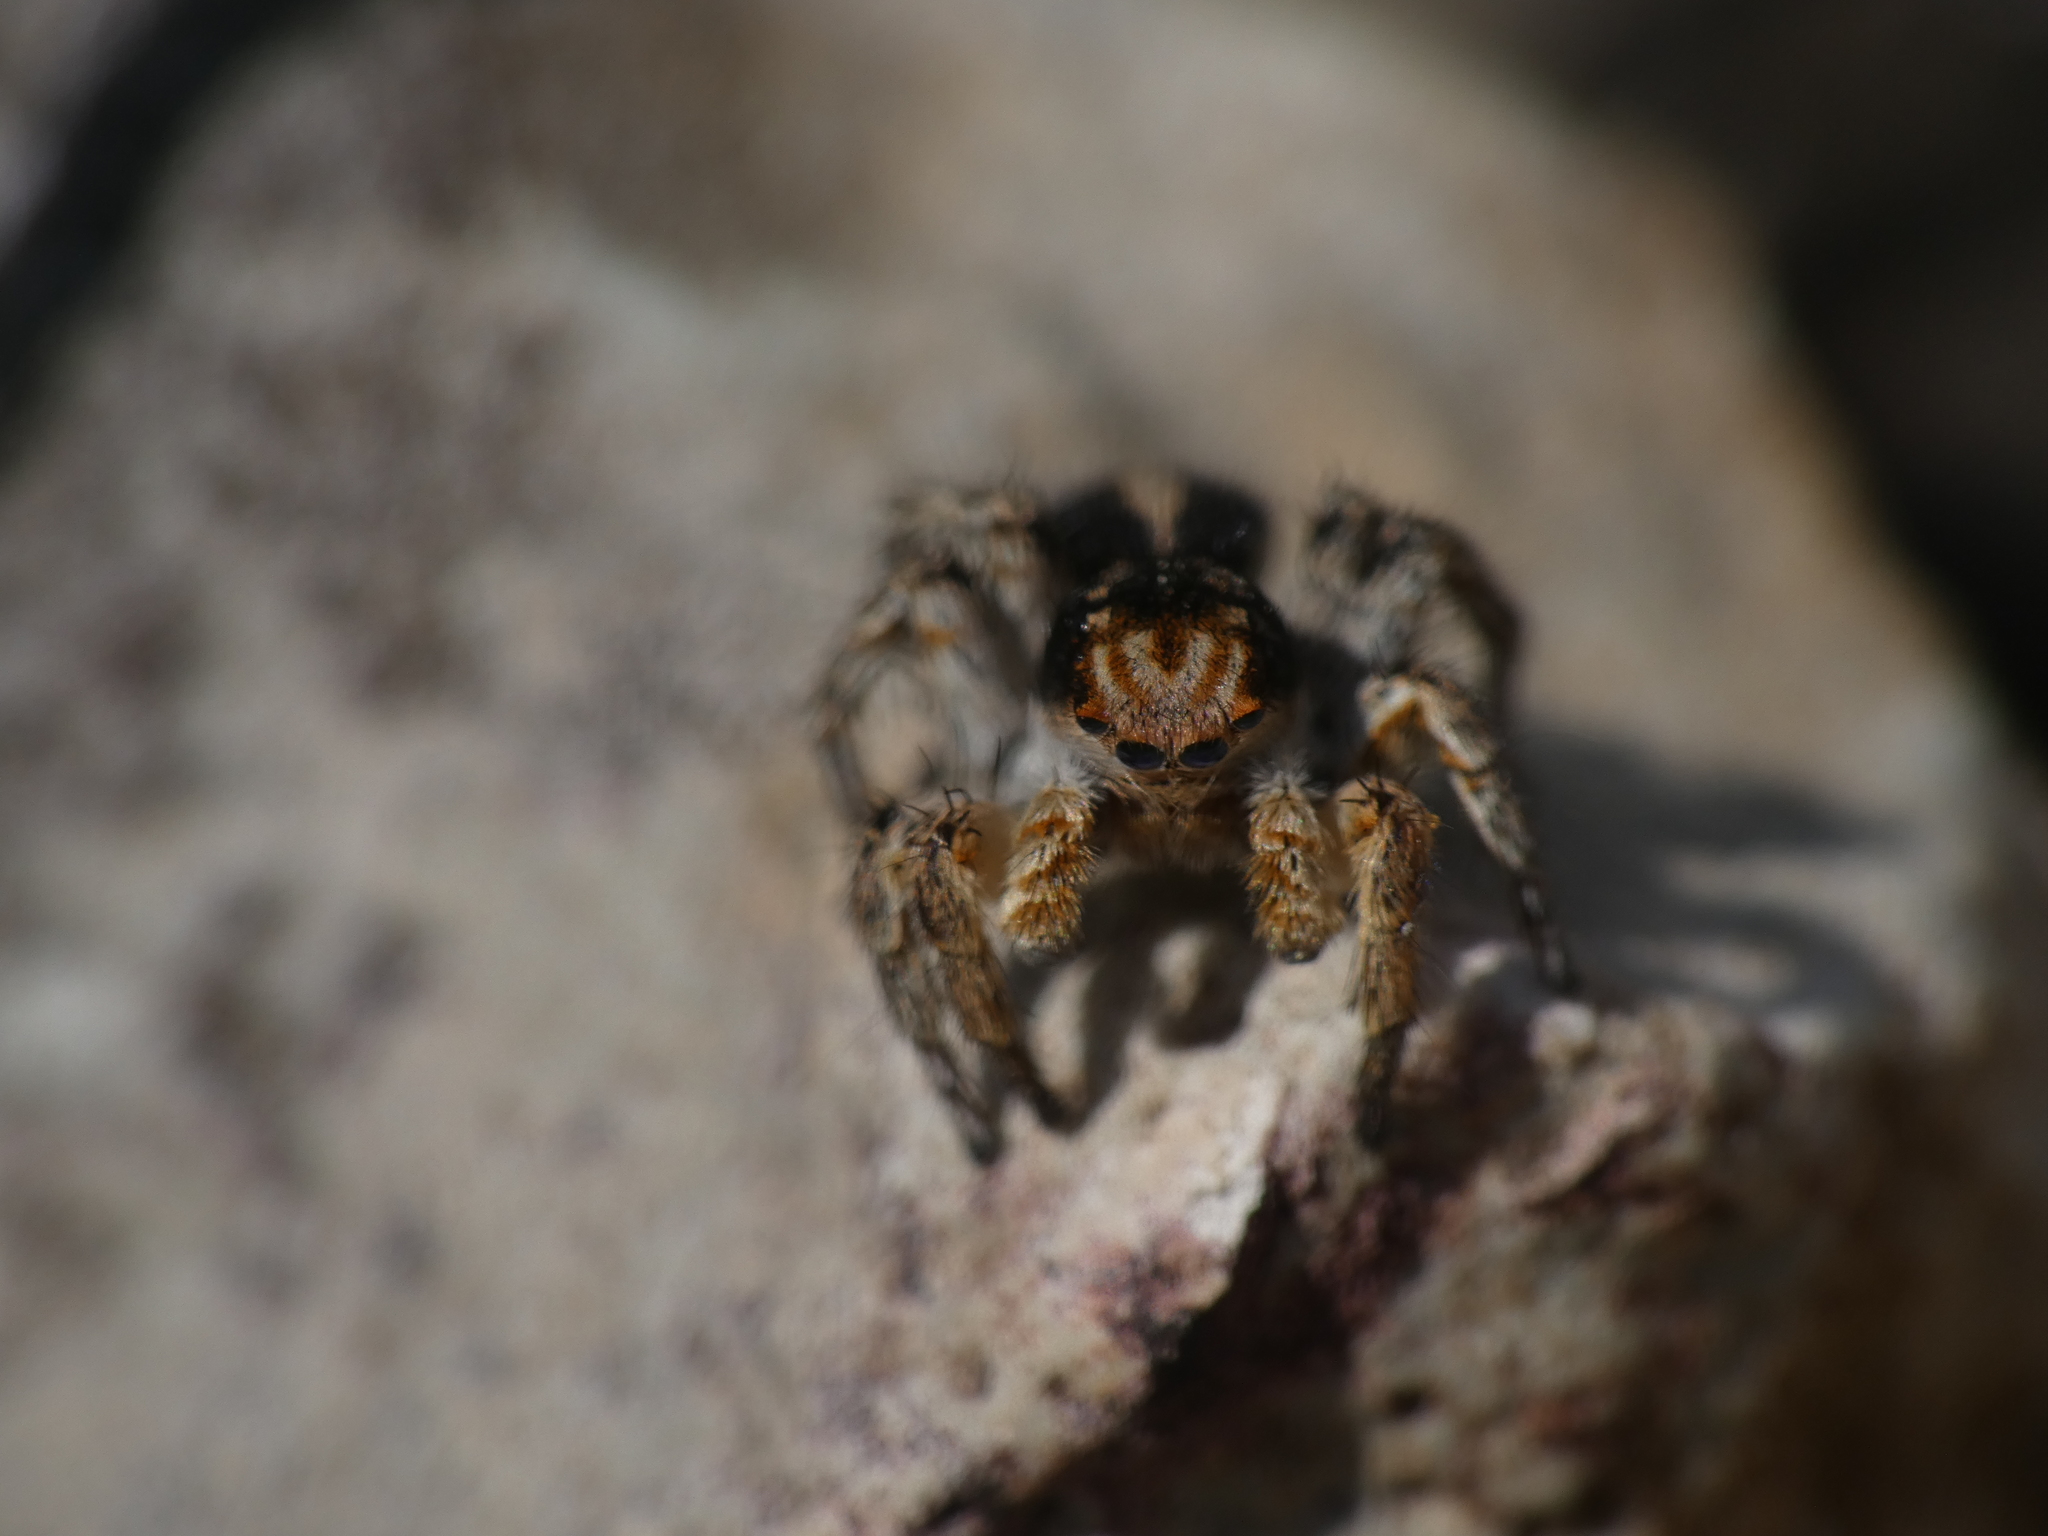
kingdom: Animalia
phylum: Arthropoda
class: Arachnida
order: Araneae
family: Salticidae
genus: Aelurillus
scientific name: Aelurillus v-insignitus
